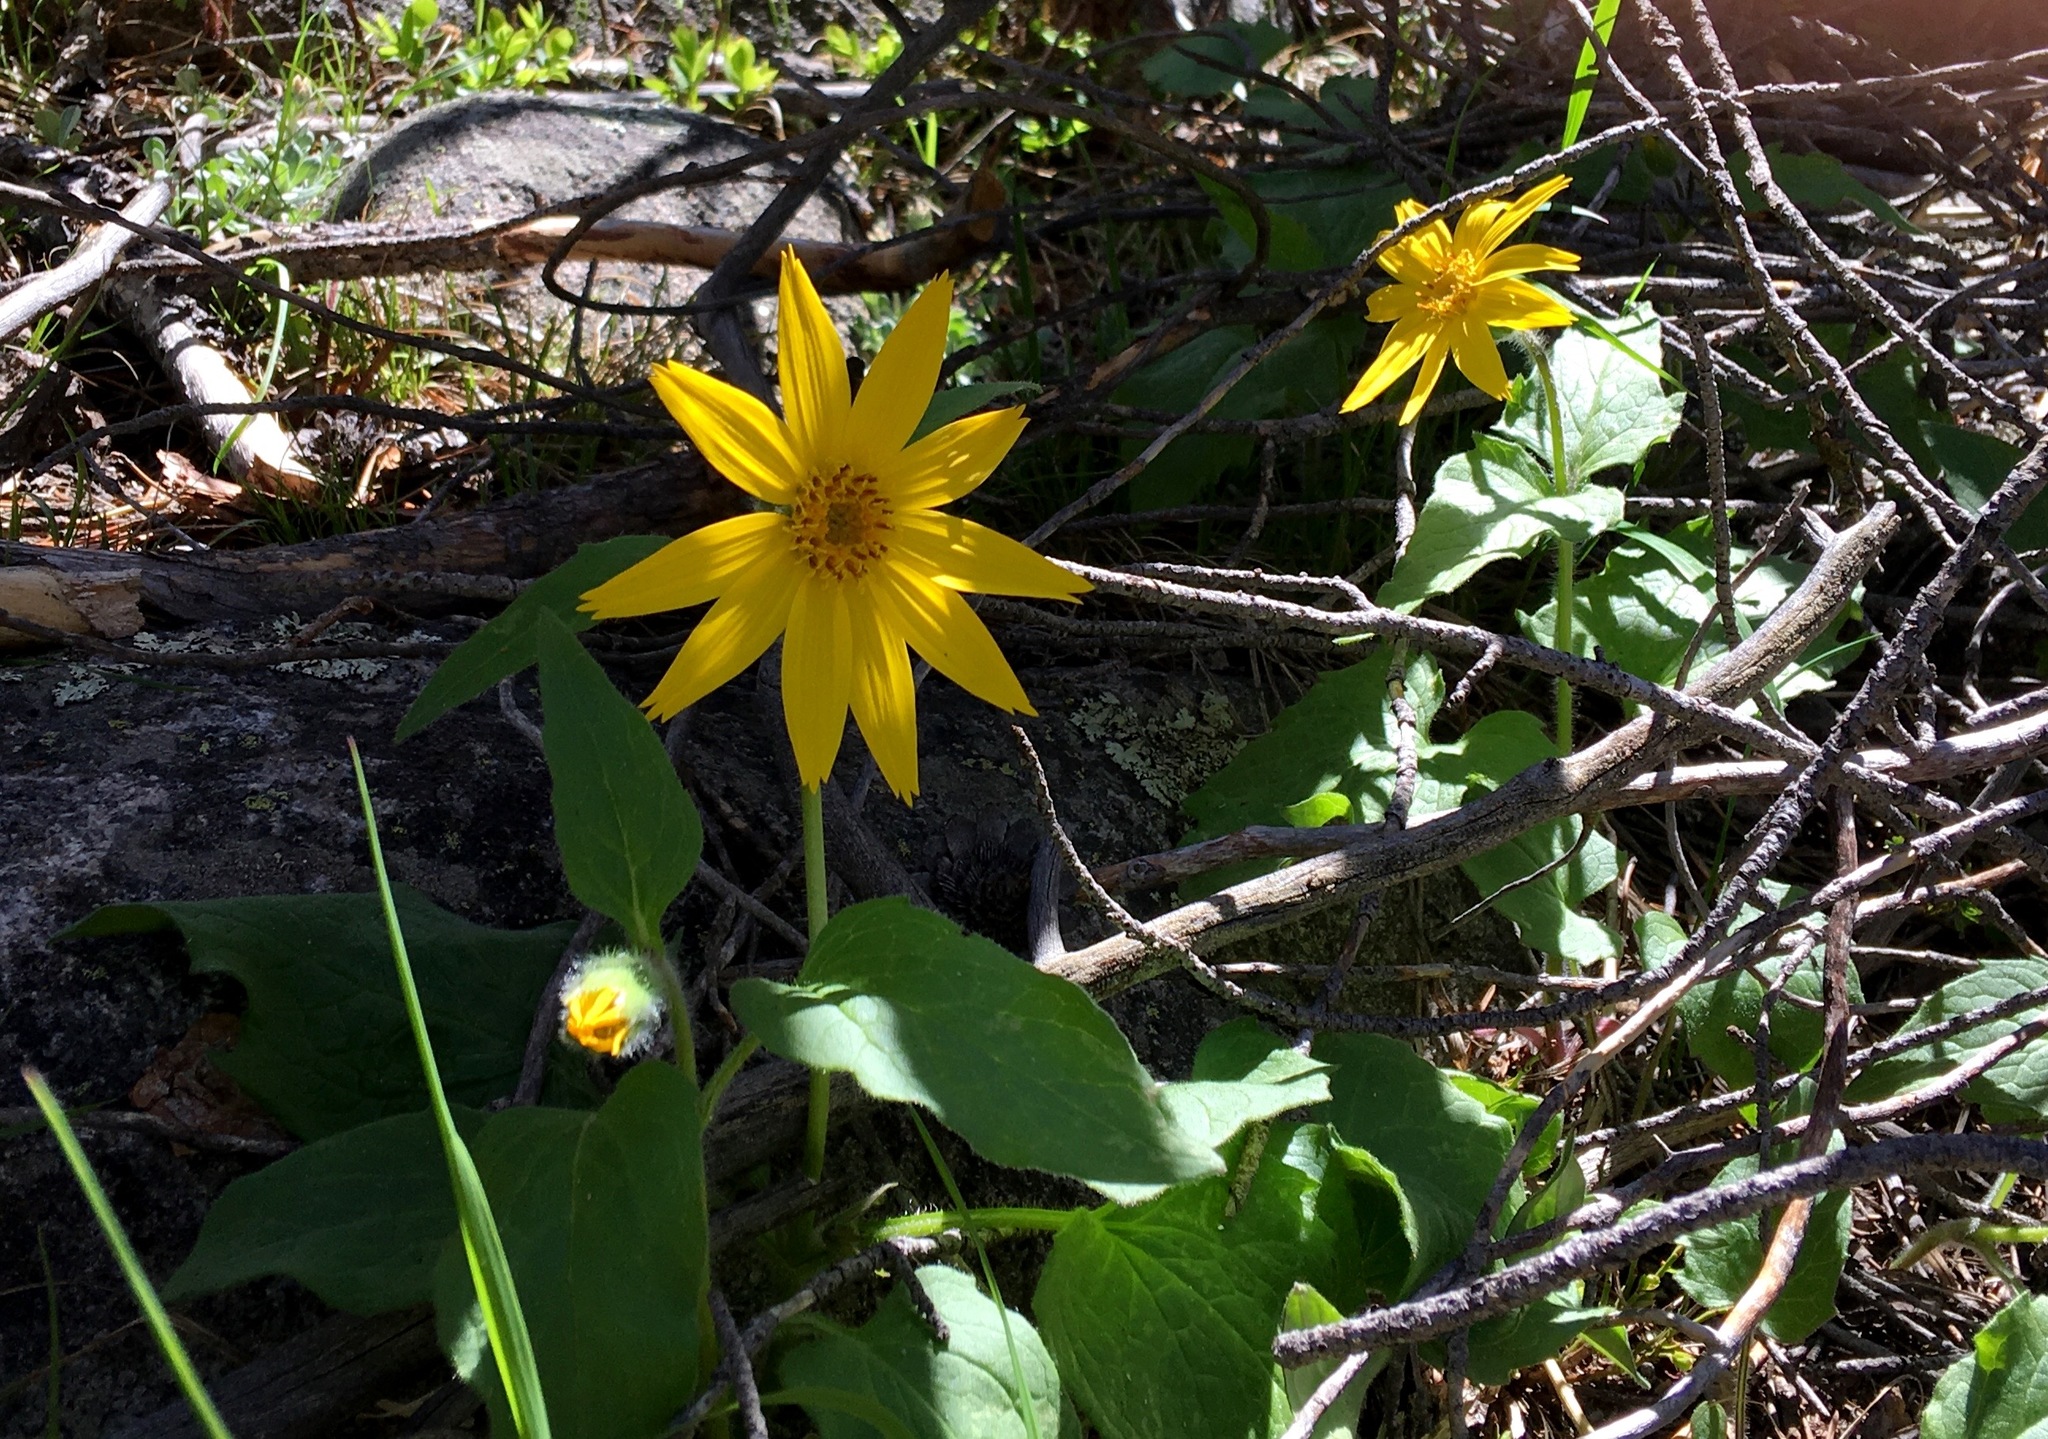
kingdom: Plantae
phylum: Tracheophyta
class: Magnoliopsida
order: Asterales
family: Asteraceae
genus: Arnica
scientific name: Arnica cordifolia
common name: Heart-leaf arnica
